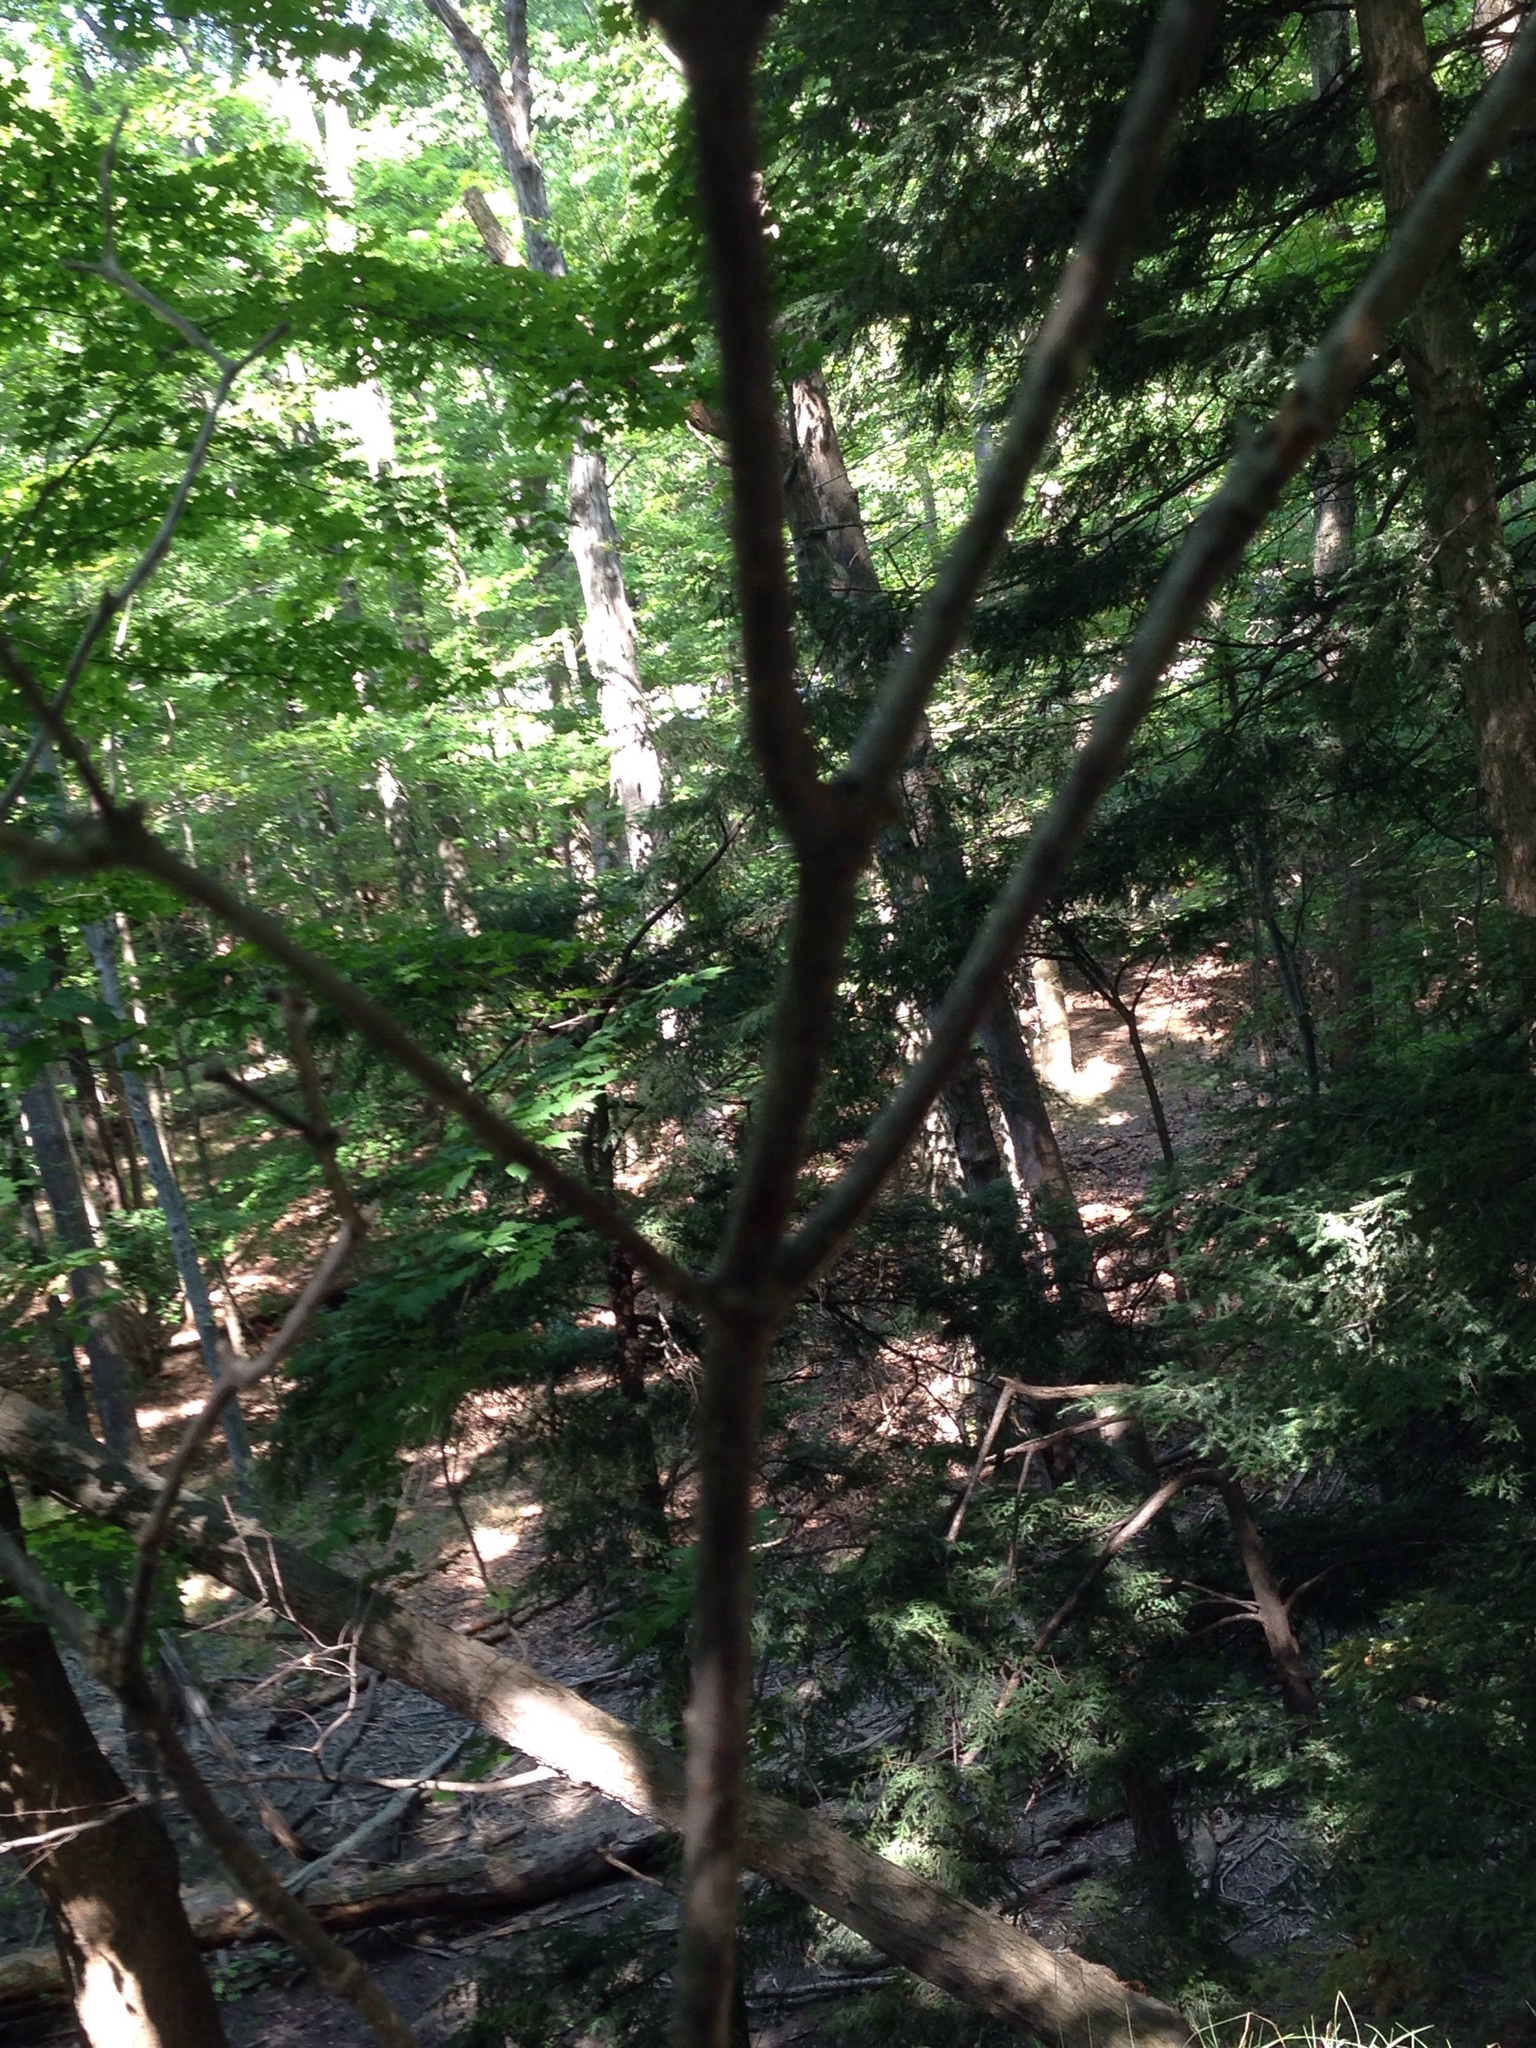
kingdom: Plantae
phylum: Tracheophyta
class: Magnoliopsida
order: Dipsacales
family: Viburnaceae
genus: Viburnum
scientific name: Viburnum acerifolium
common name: Dockmackie
